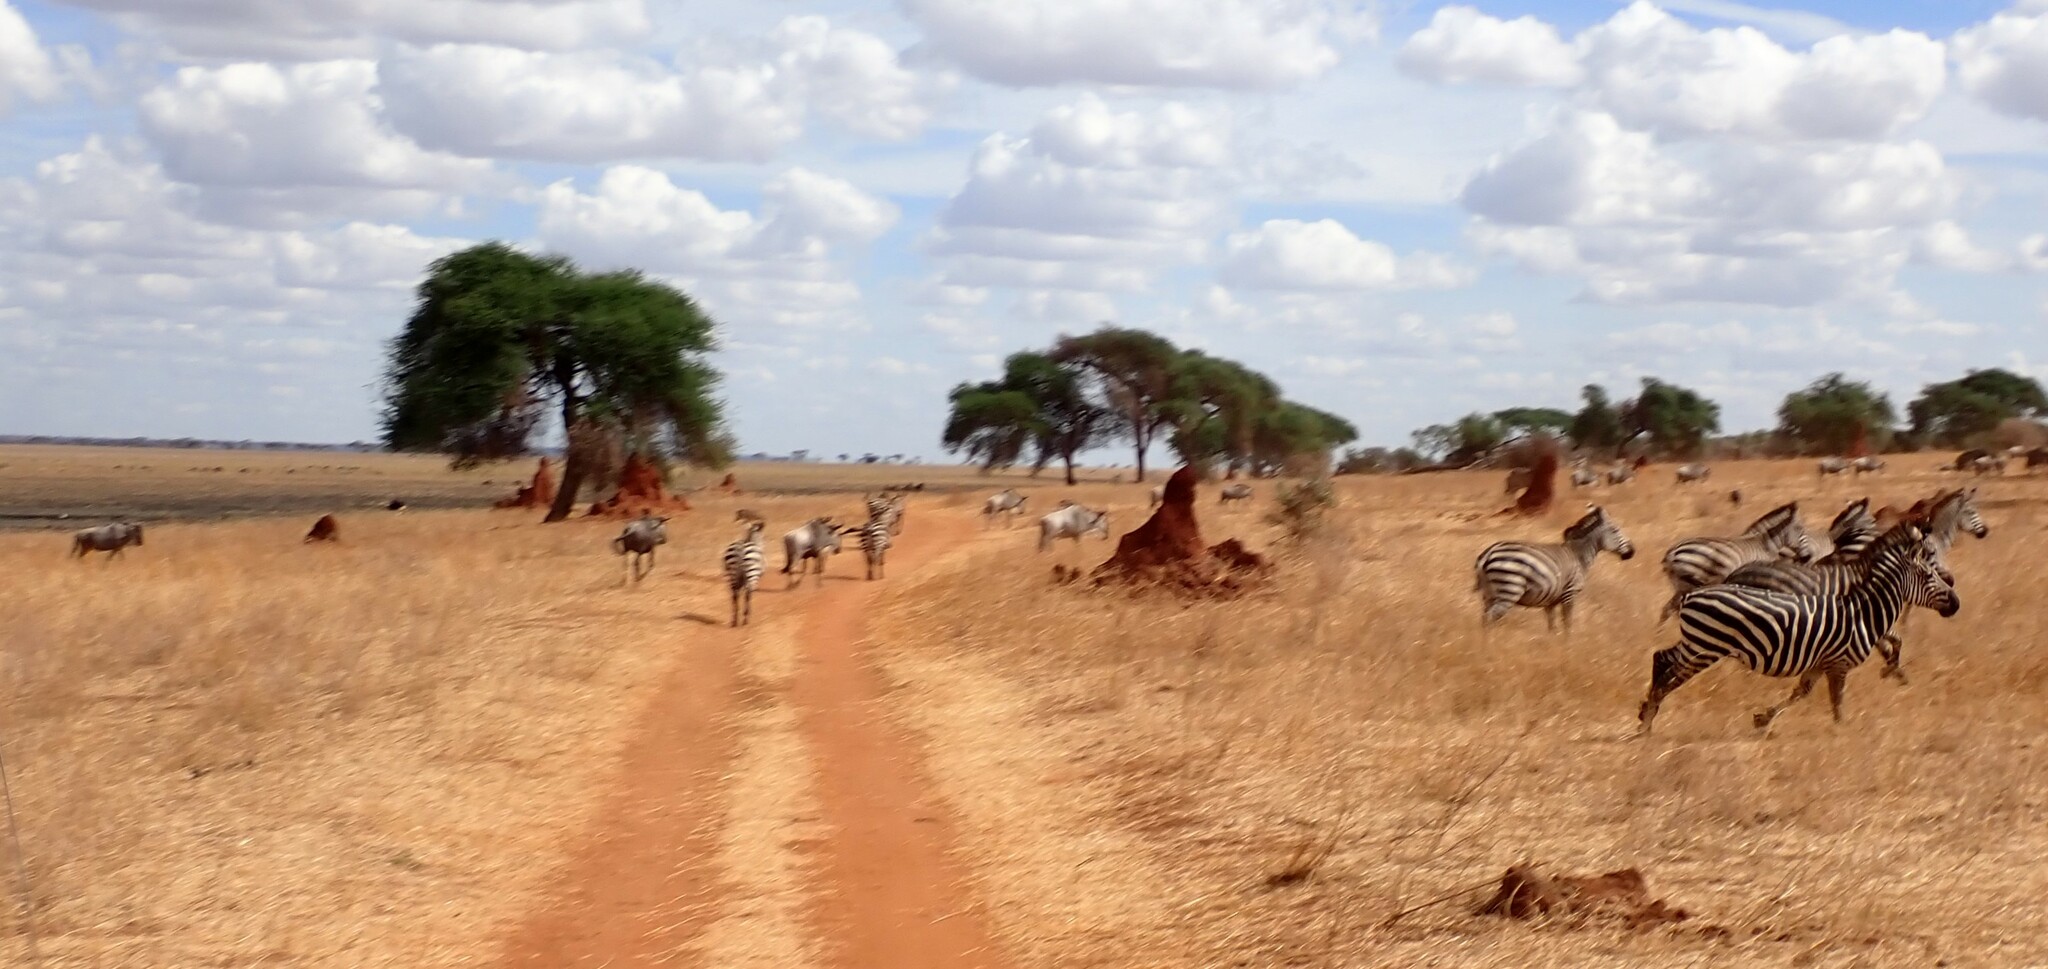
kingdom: Animalia
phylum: Chordata
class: Mammalia
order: Perissodactyla
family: Equidae
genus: Equus
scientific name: Equus quagga
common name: Plains zebra
